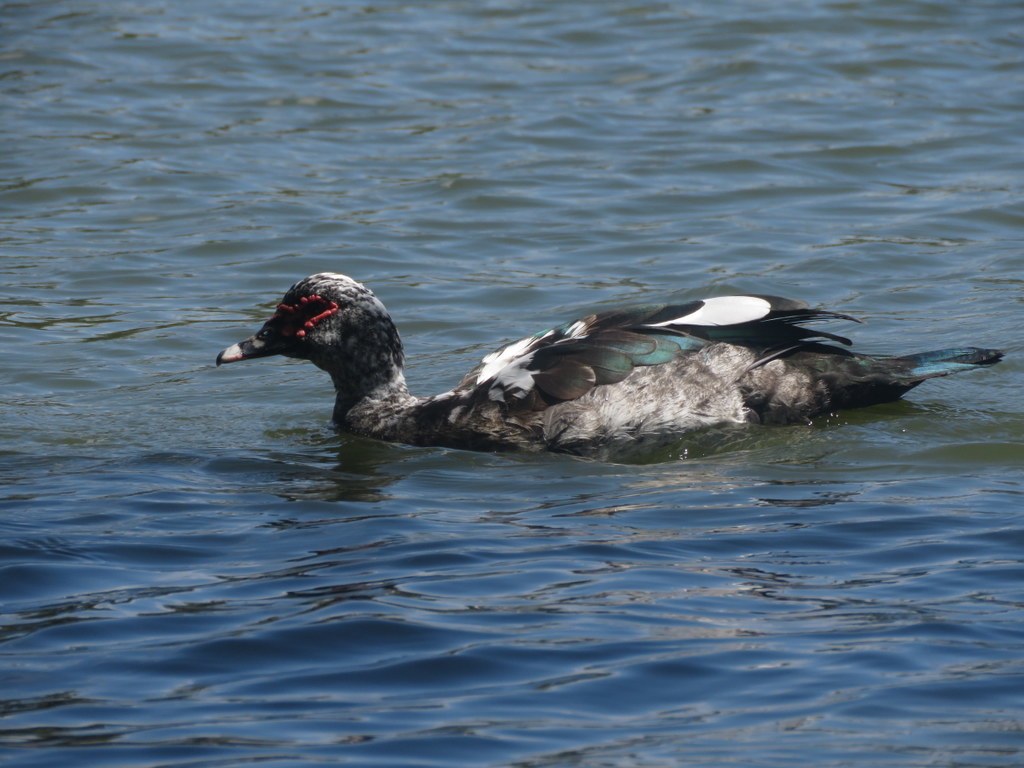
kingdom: Animalia
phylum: Chordata
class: Aves
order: Anseriformes
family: Anatidae
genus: Cairina
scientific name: Cairina moschata
